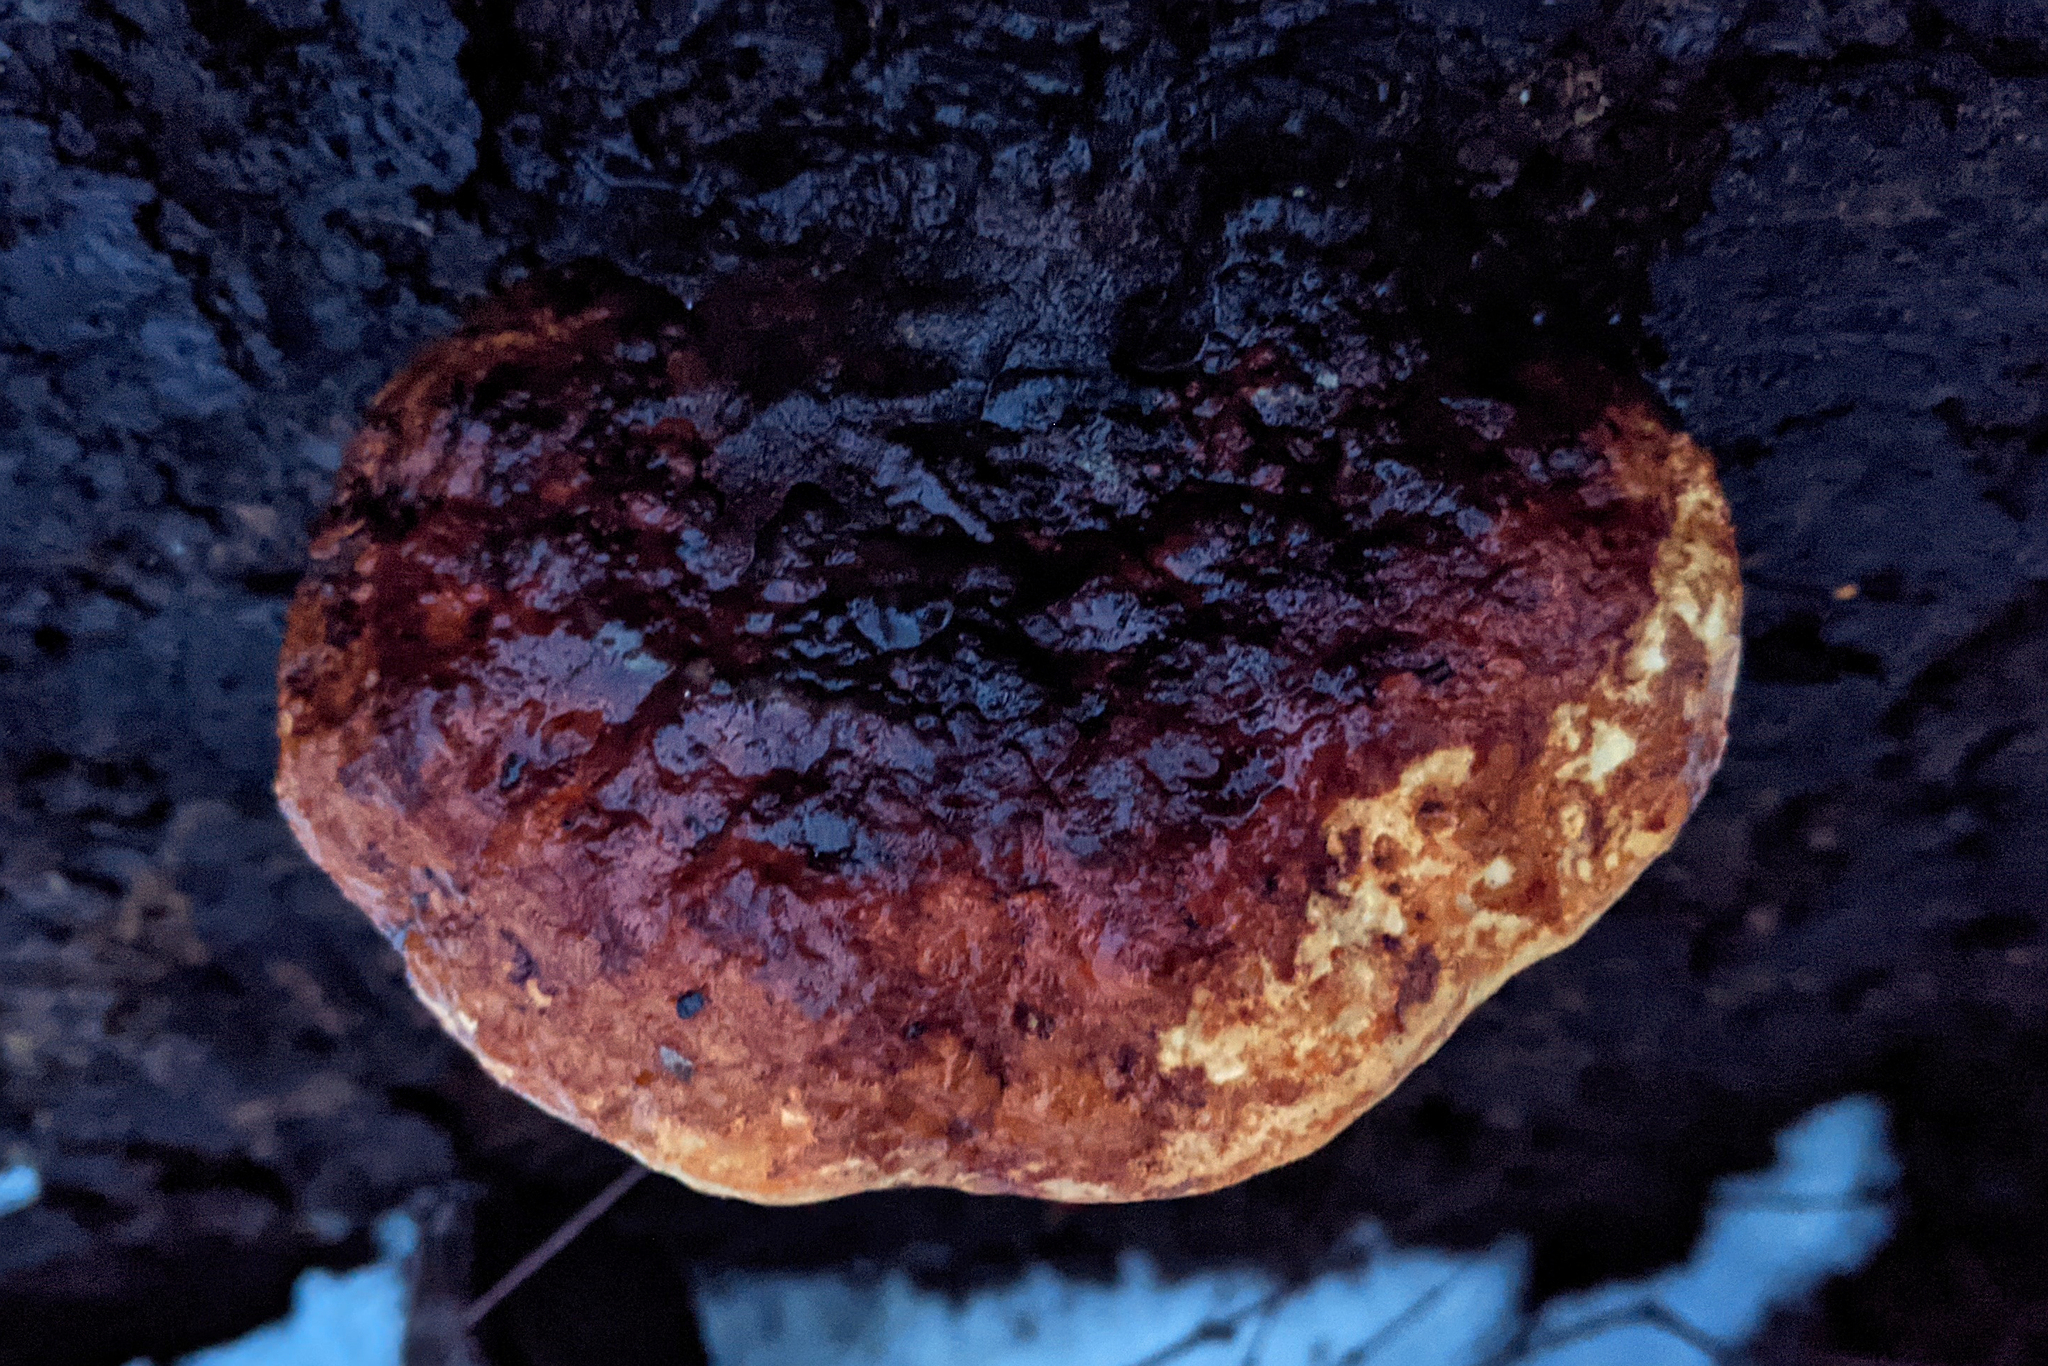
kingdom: Fungi
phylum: Basidiomycota
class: Agaricomycetes
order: Polyporales
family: Fomitopsidaceae
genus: Fomitopsis
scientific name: Fomitopsis pinicola
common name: Red-belted bracket
